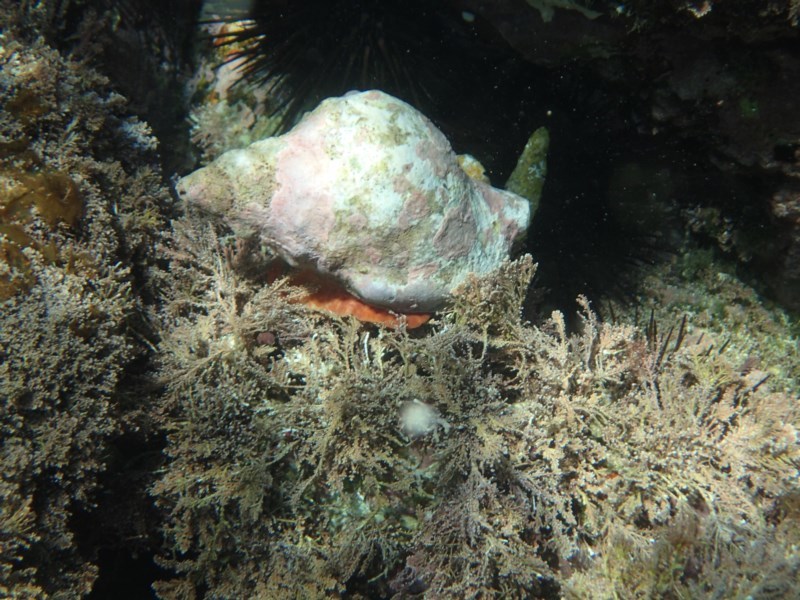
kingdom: Animalia
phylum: Mollusca
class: Gastropoda
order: Littorinimorpha
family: Charoniidae
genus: Charonia
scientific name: Charonia lampas
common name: Knobbed triton
